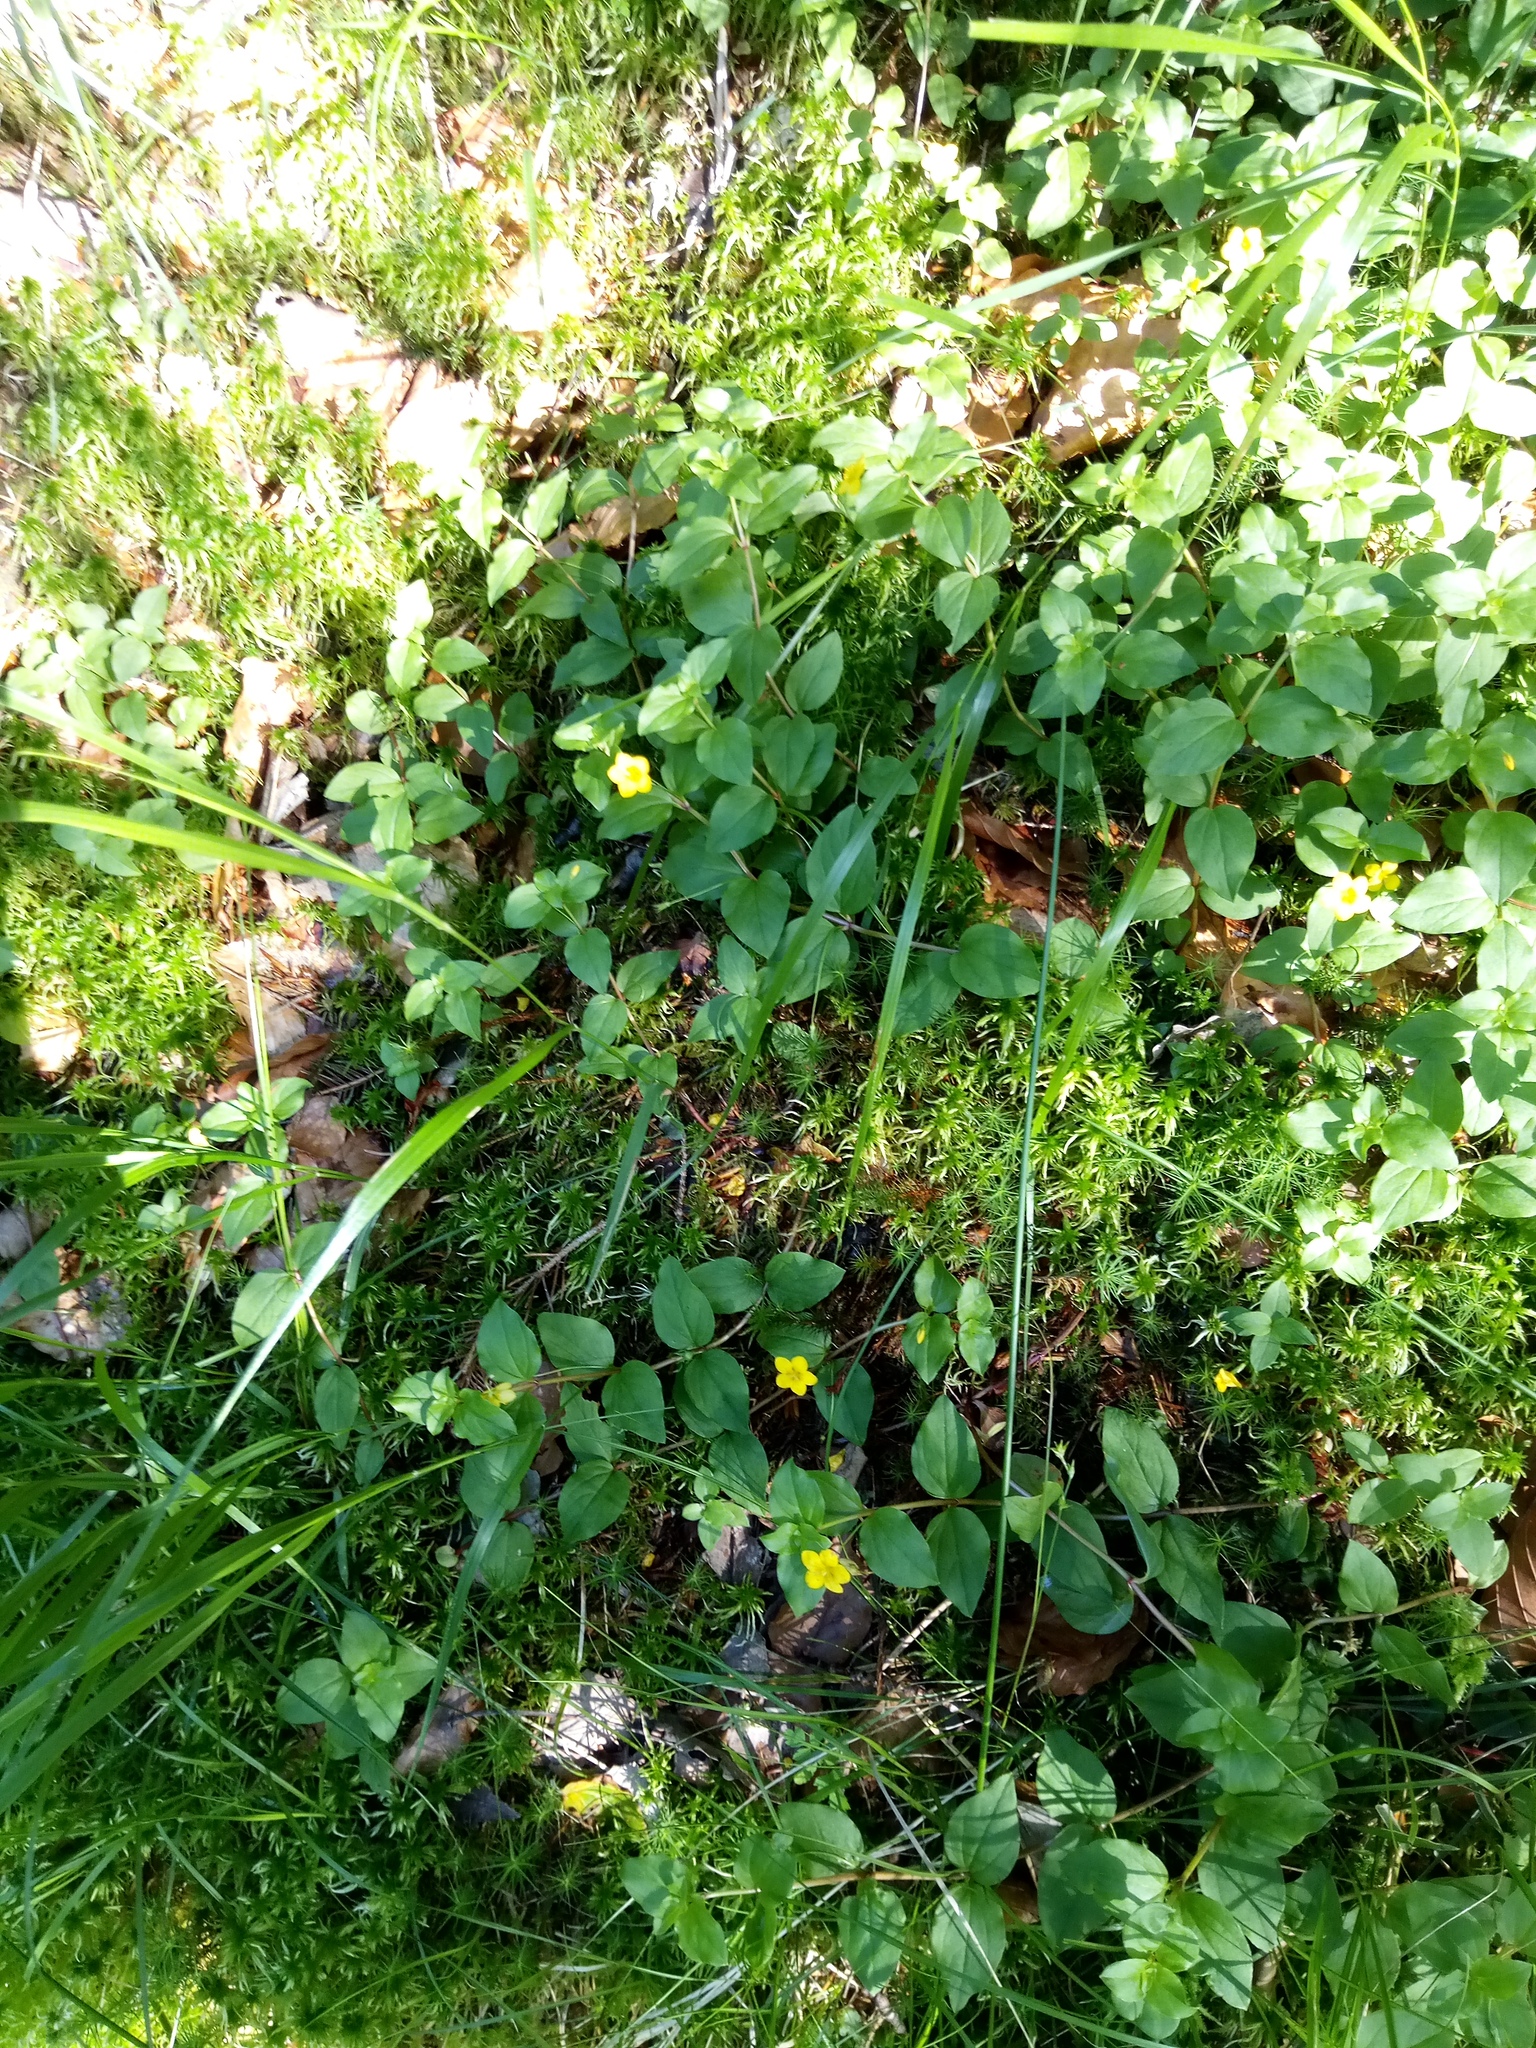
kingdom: Plantae
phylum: Tracheophyta
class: Magnoliopsida
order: Ericales
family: Primulaceae
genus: Lysimachia
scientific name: Lysimachia nemorum
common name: Yellow pimpernel
